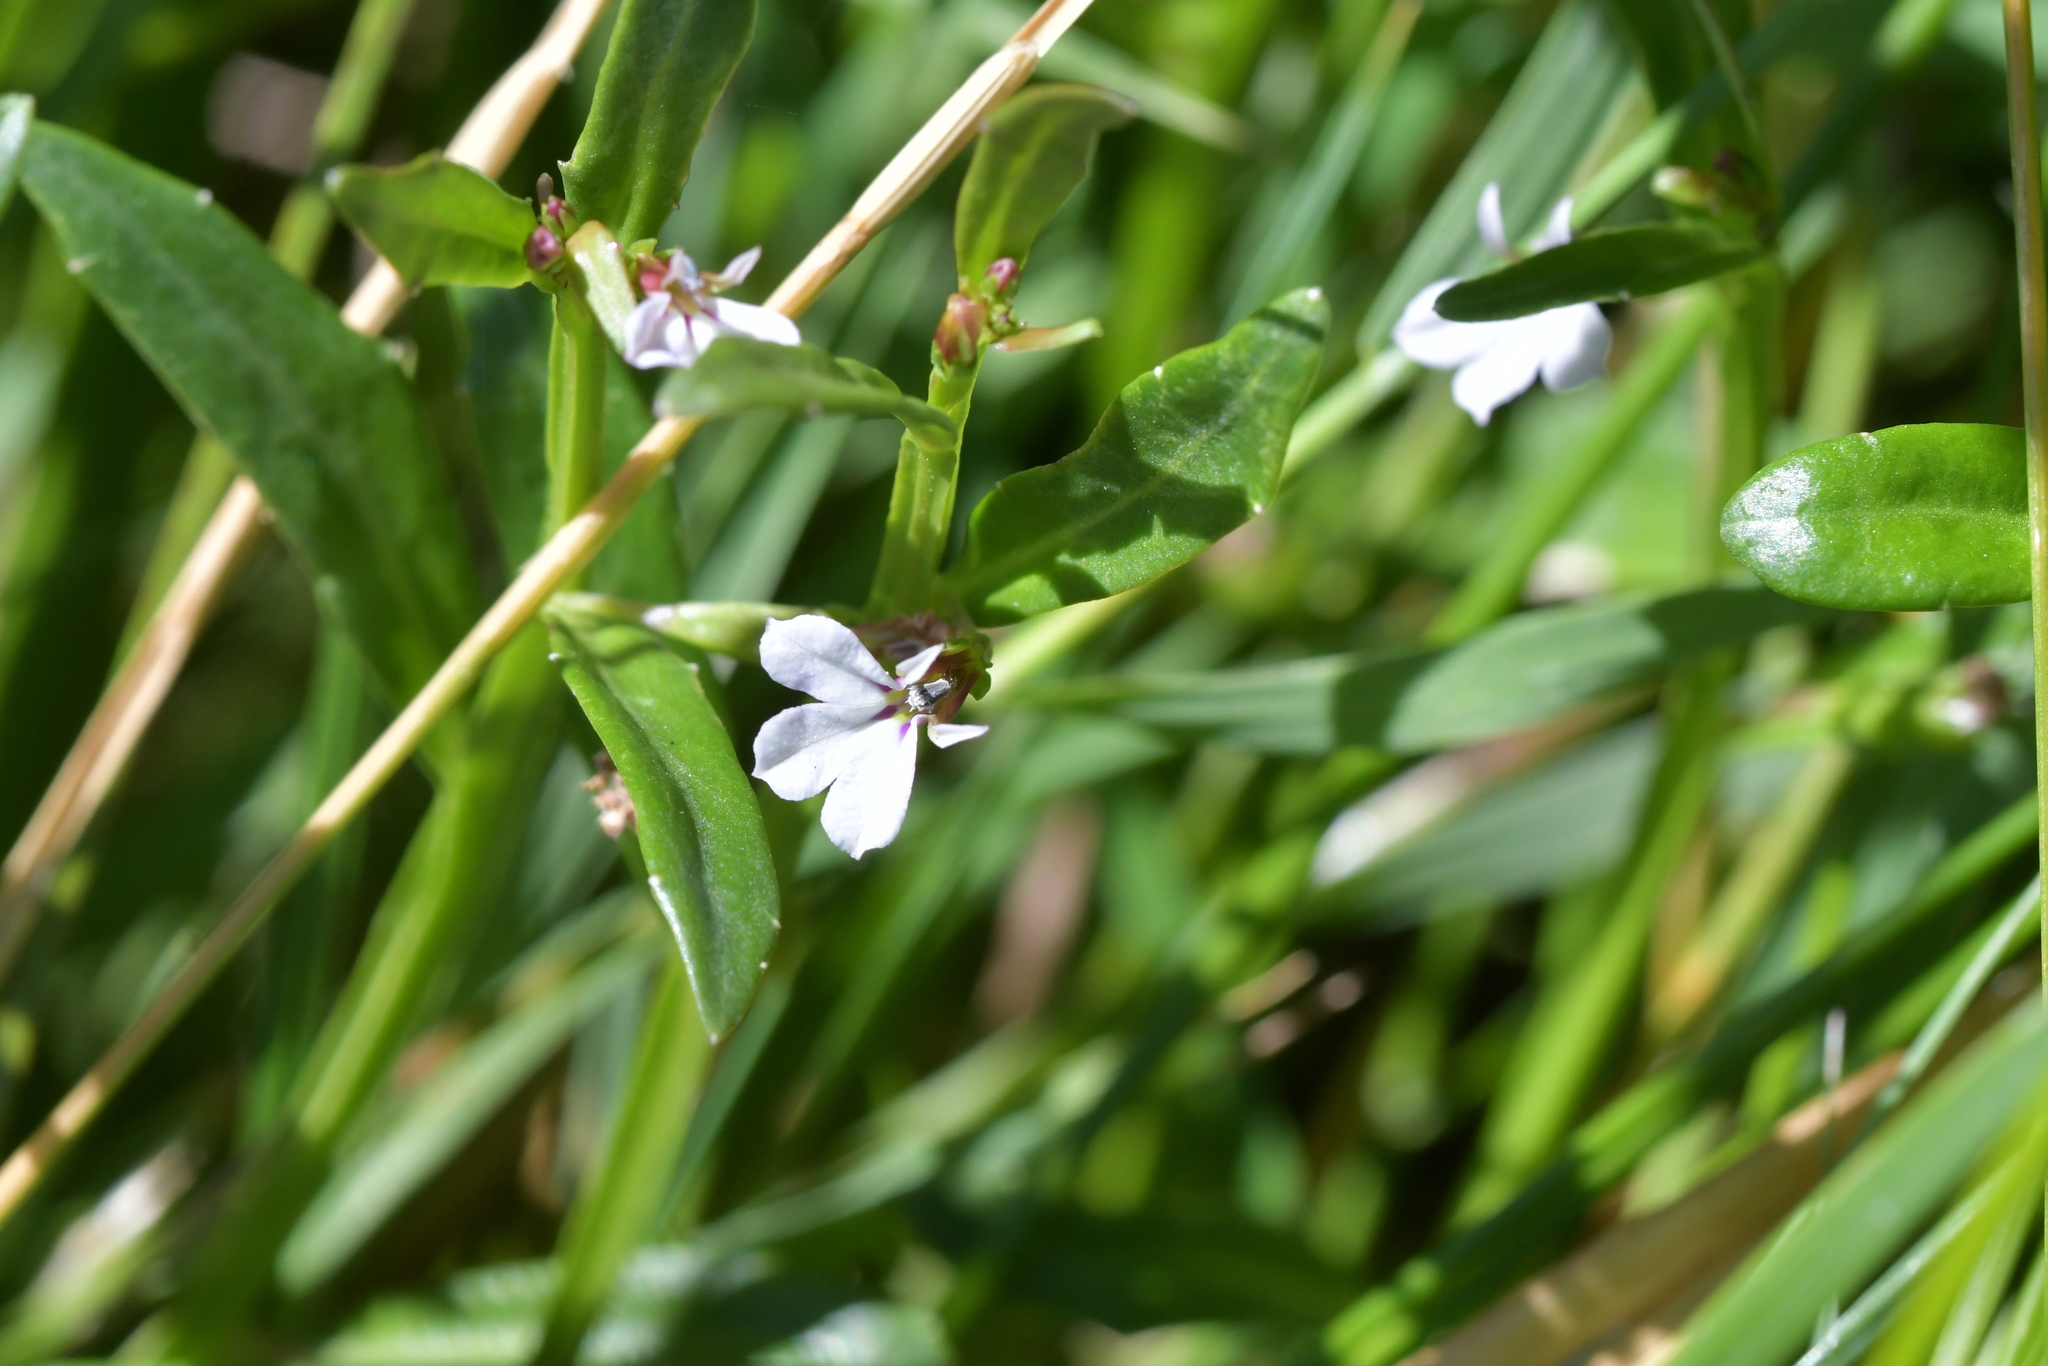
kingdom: Plantae
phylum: Tracheophyta
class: Magnoliopsida
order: Asterales
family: Campanulaceae
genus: Lobelia
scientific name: Lobelia anceps
